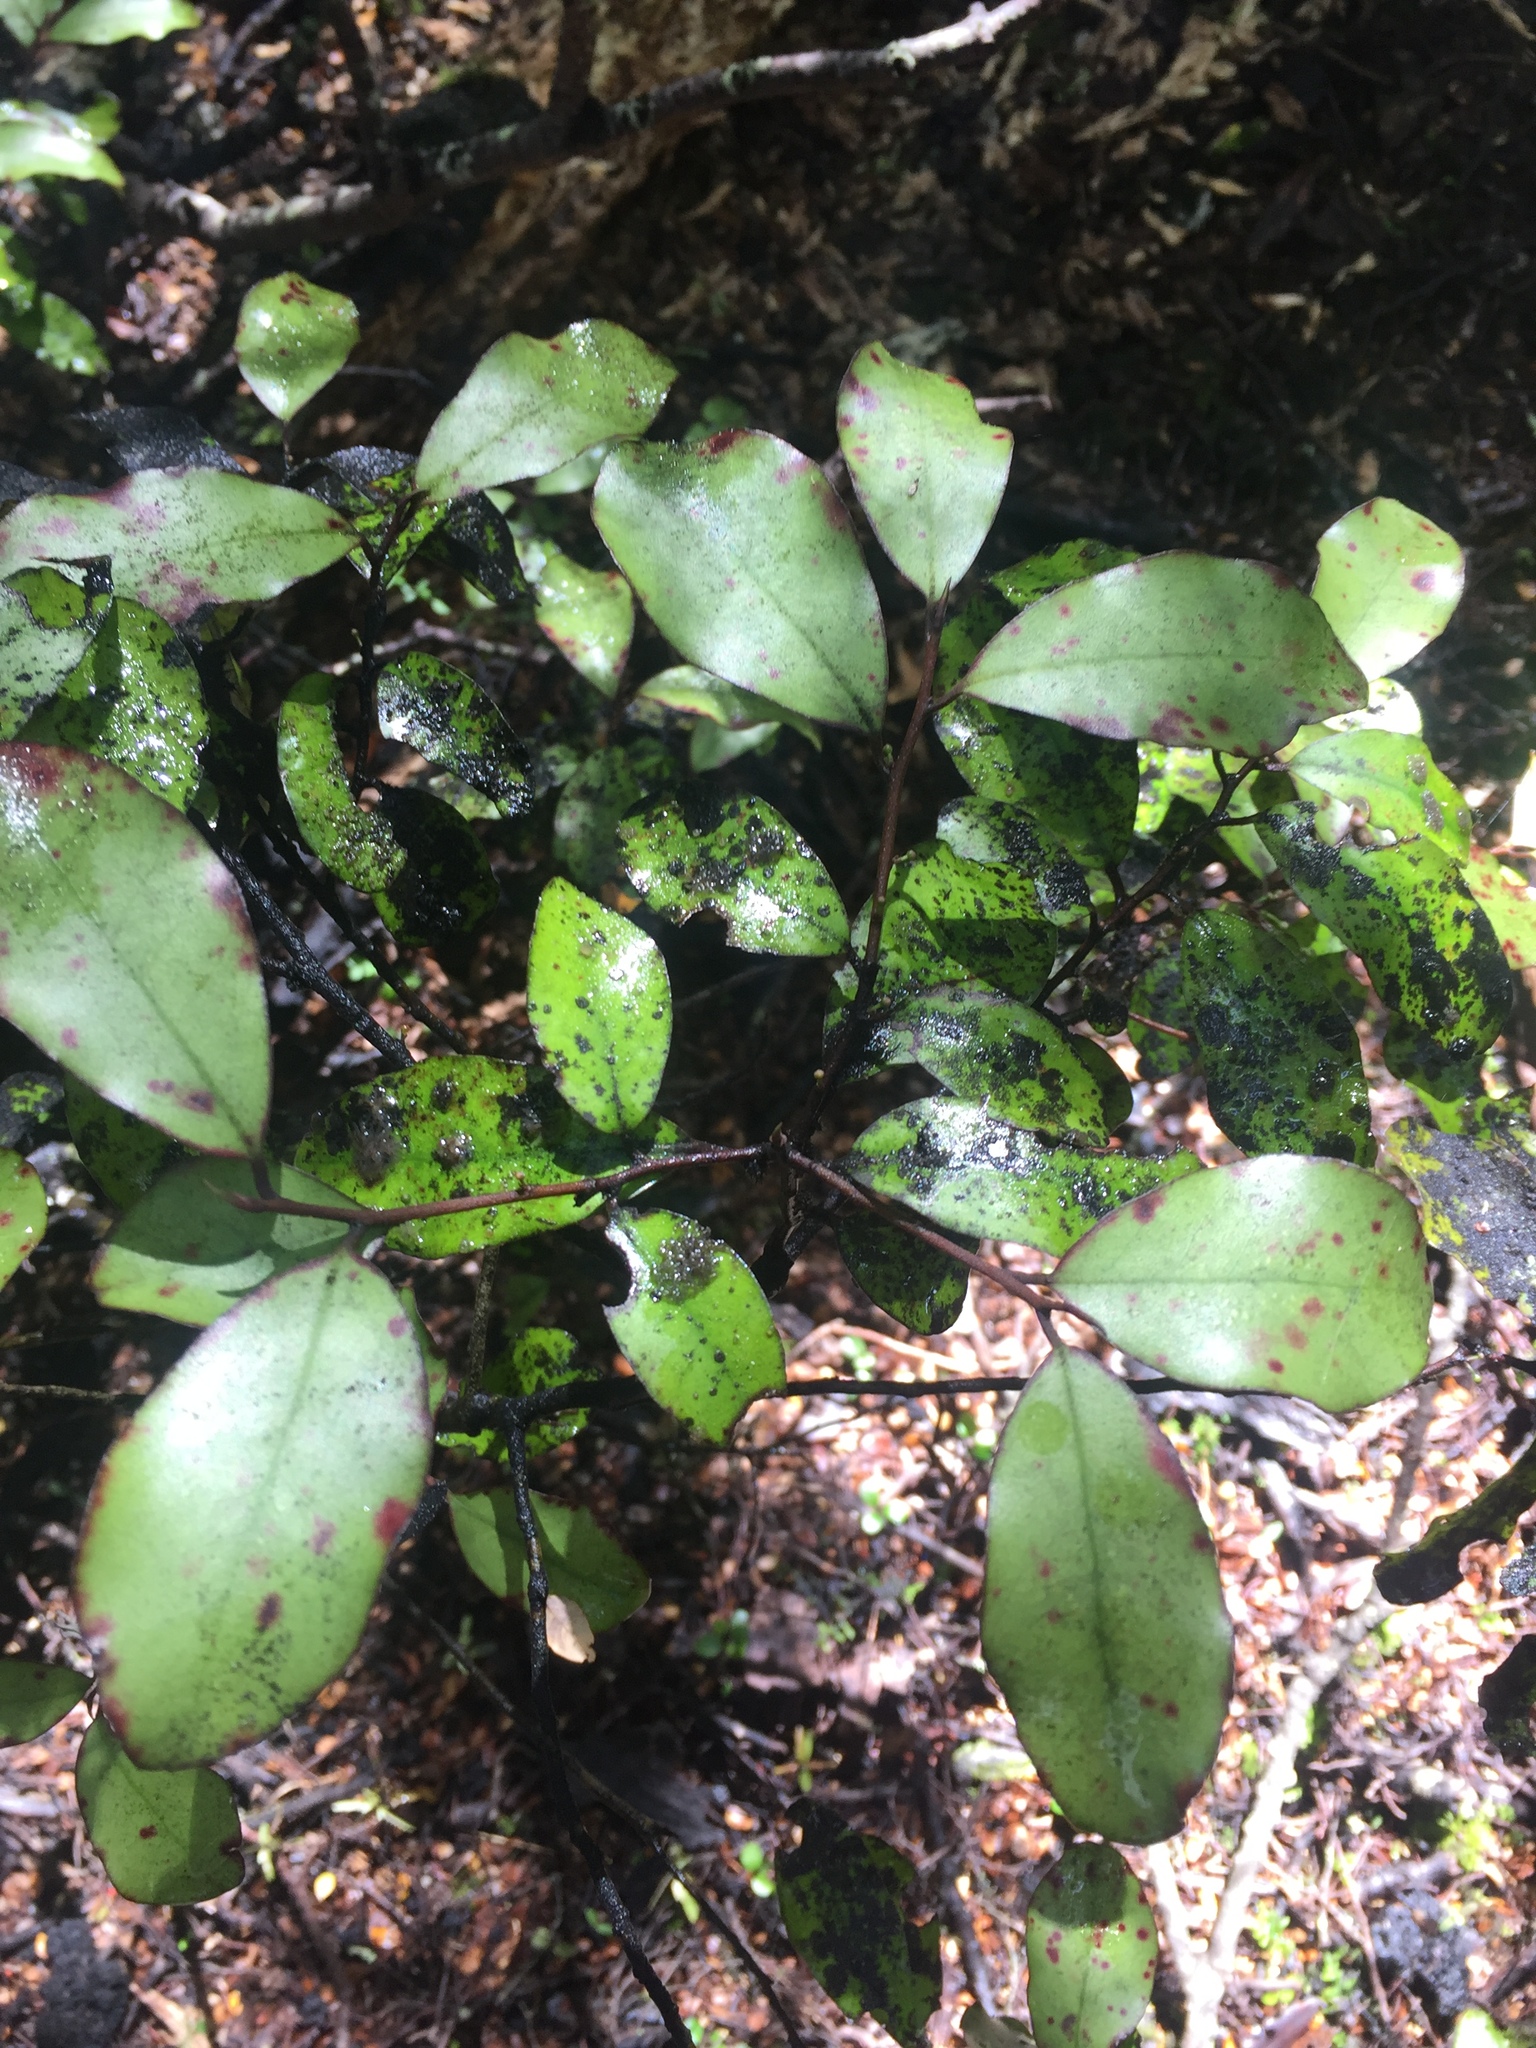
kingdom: Plantae
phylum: Tracheophyta
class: Magnoliopsida
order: Canellales
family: Winteraceae
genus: Pseudowintera
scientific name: Pseudowintera colorata
